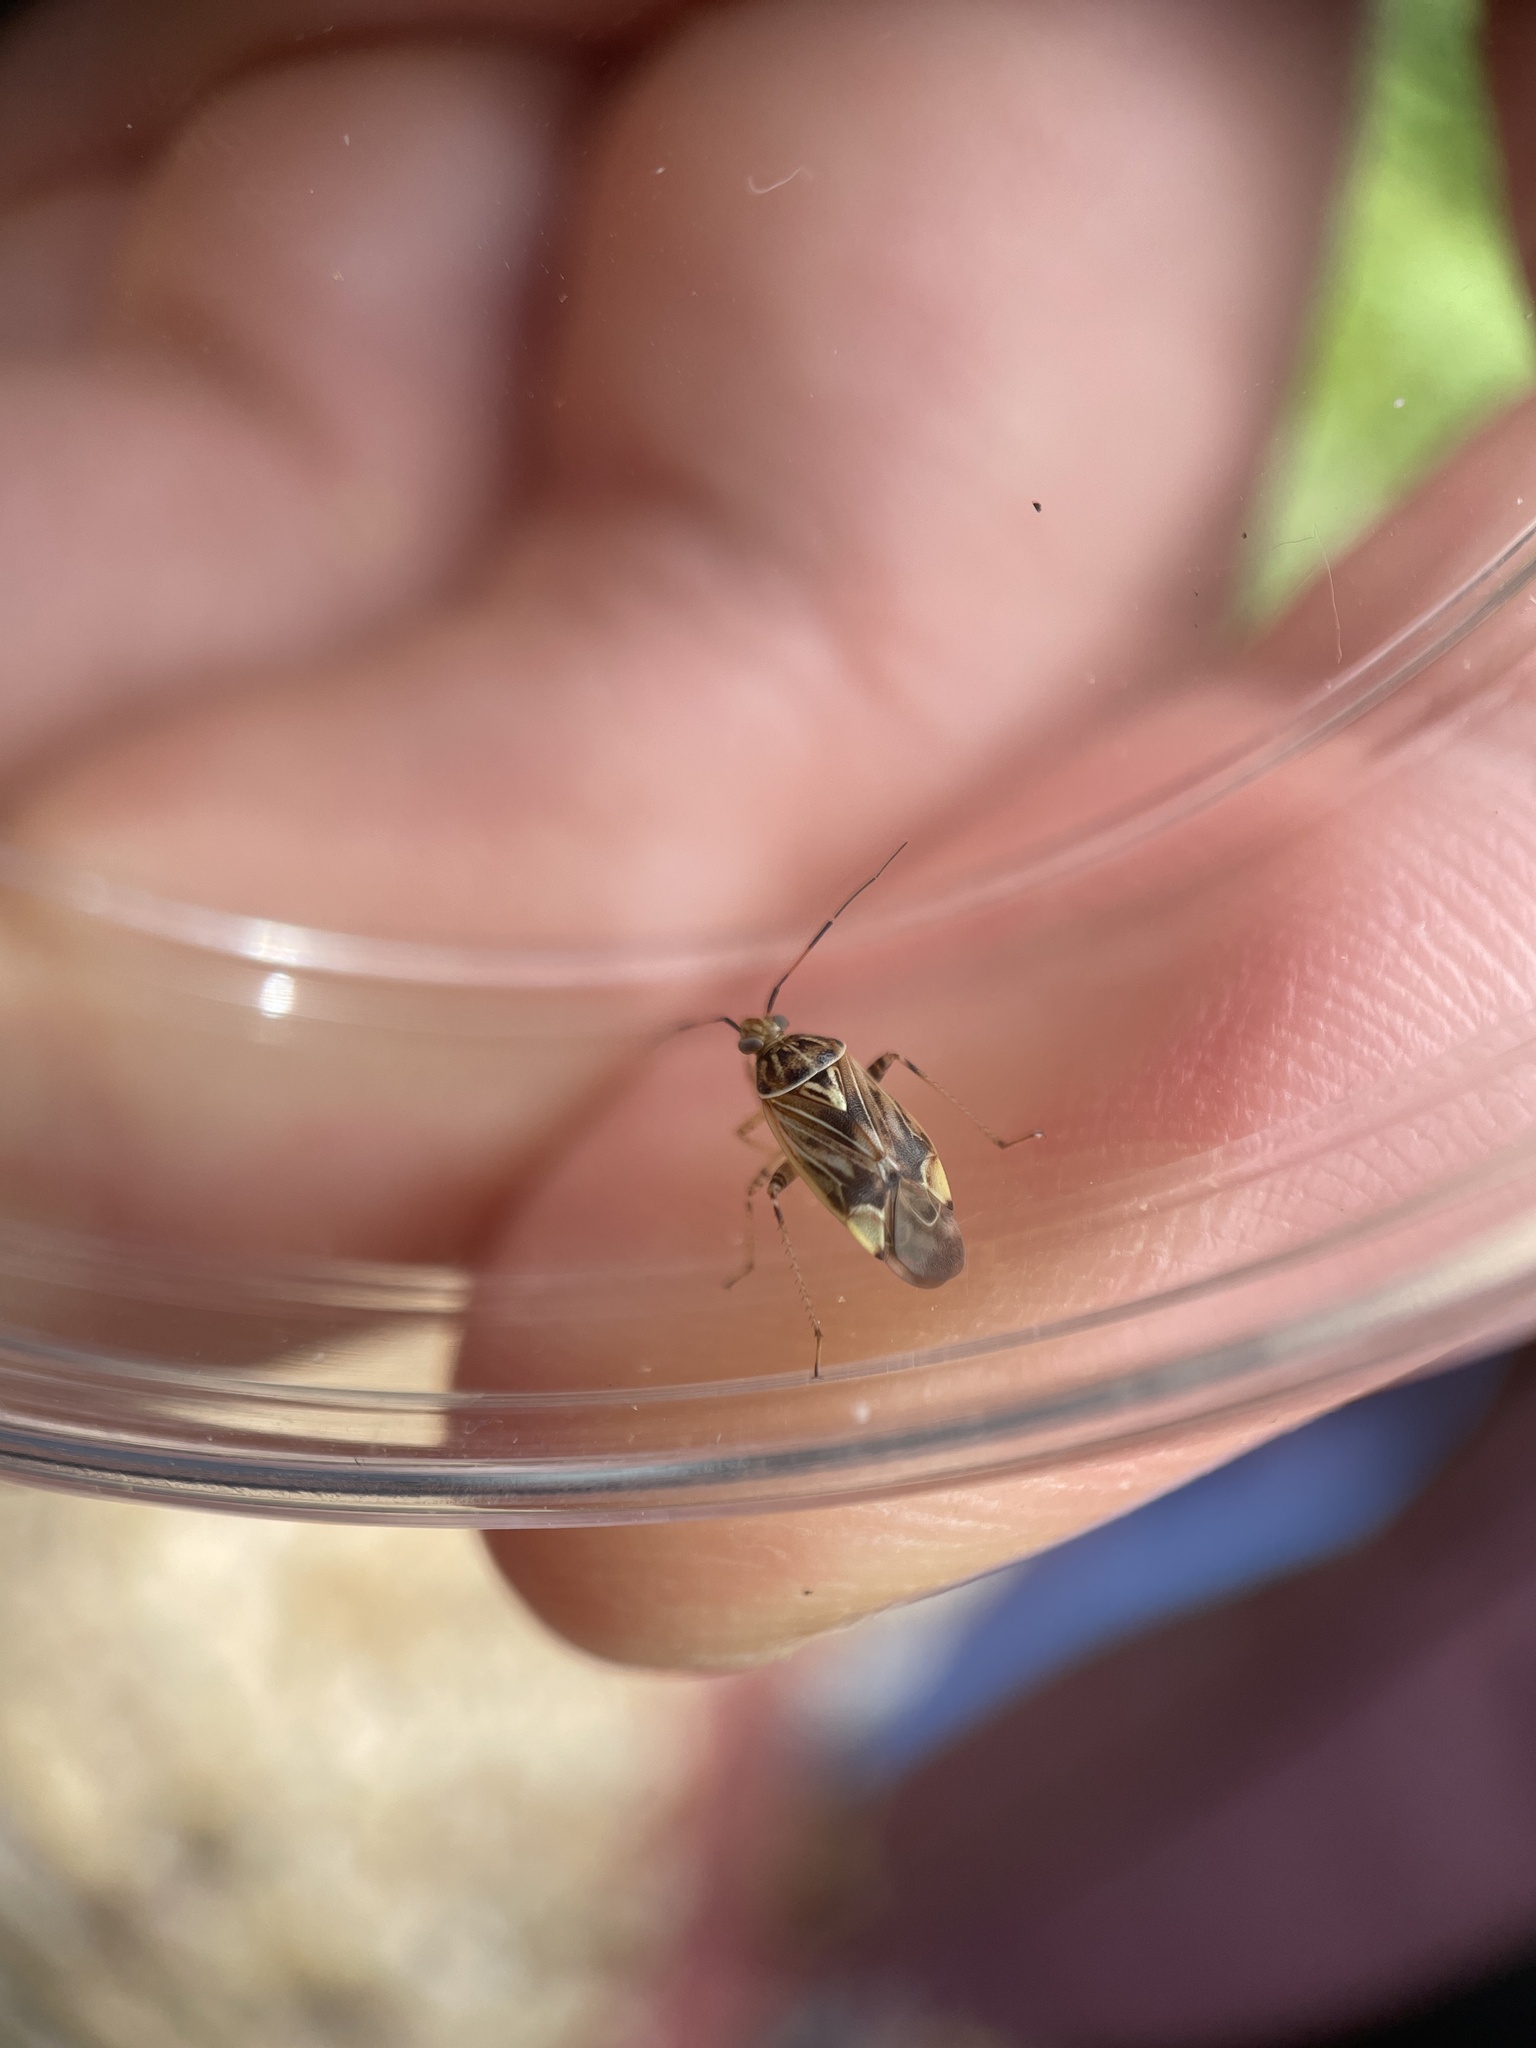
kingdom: Animalia
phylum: Arthropoda
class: Insecta
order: Hemiptera
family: Miridae
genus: Lygus
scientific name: Lygus lineolaris
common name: North american tarnished plant bug
